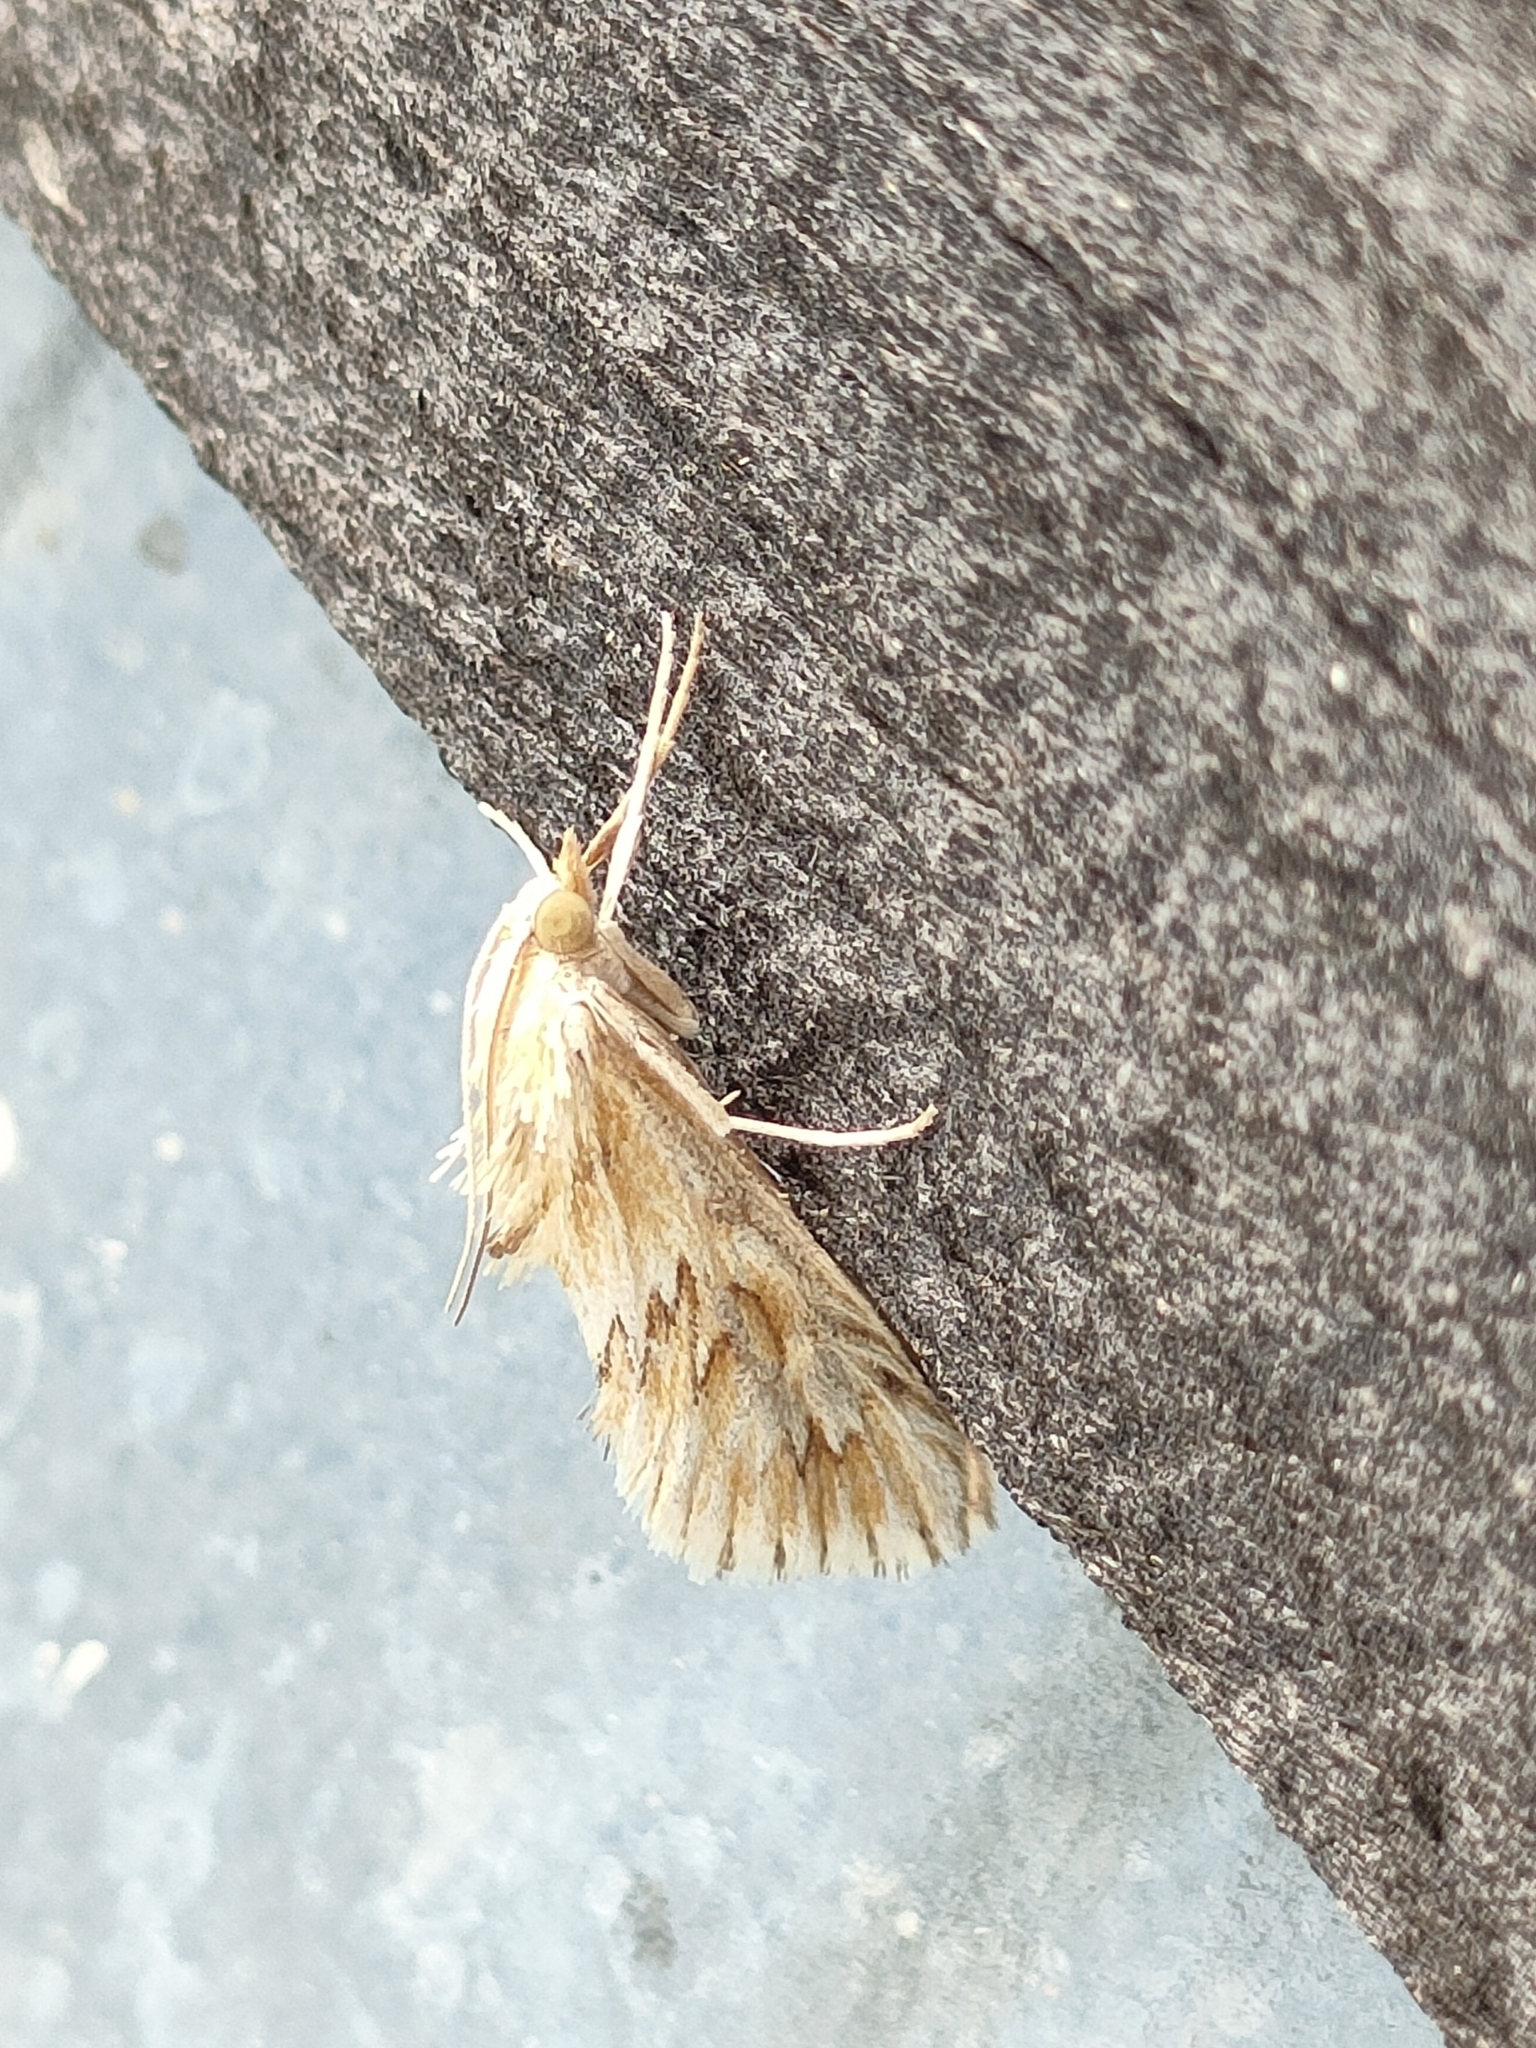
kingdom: Animalia
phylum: Arthropoda
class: Insecta
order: Lepidoptera
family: Crambidae
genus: Cynaeda
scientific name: Cynaeda dentalis
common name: Starry pearl
